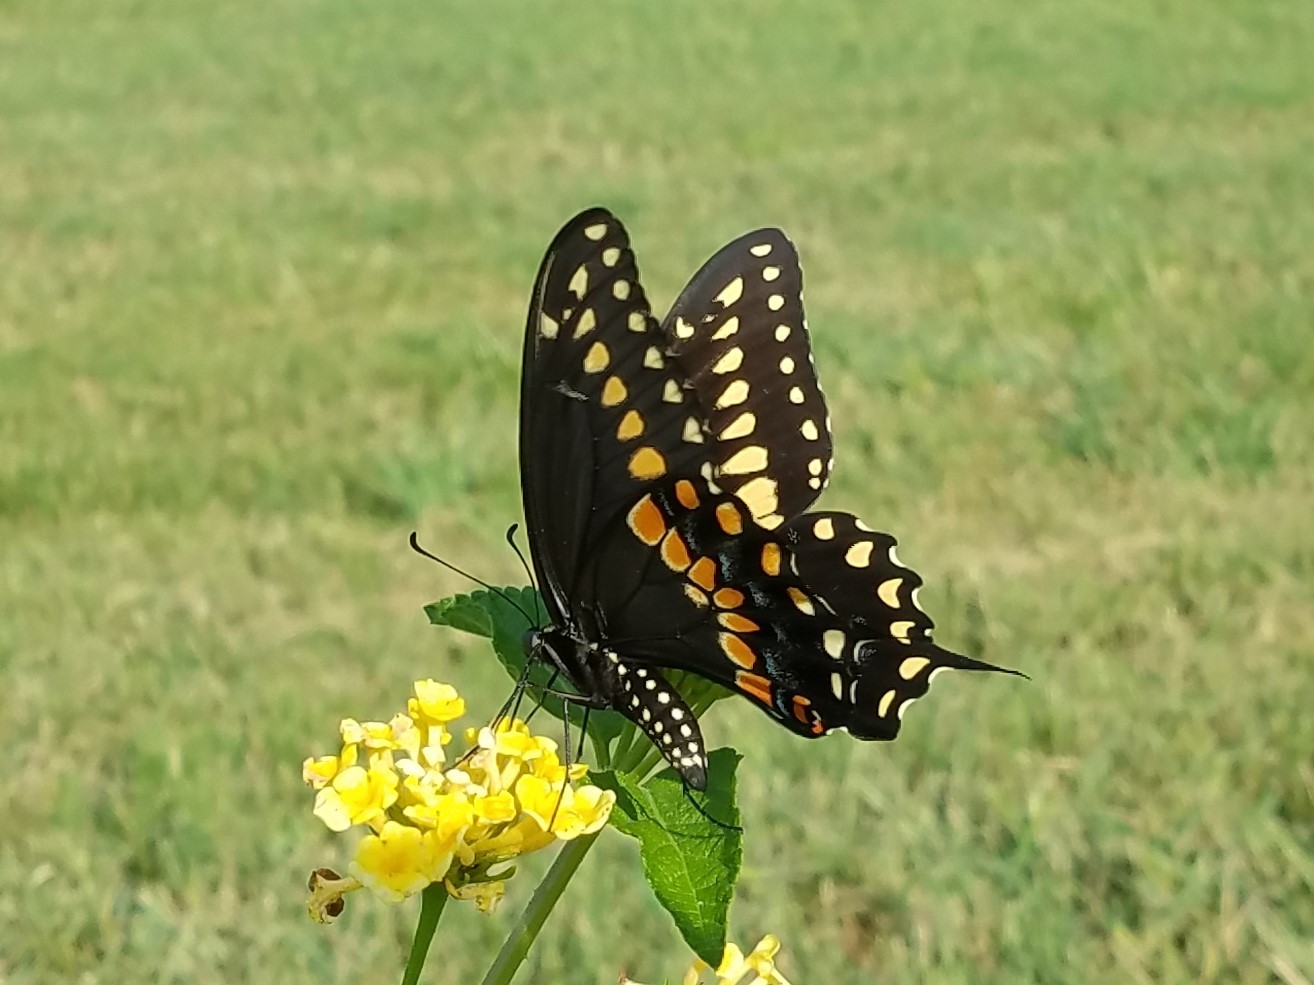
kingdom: Animalia
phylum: Arthropoda
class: Insecta
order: Lepidoptera
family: Papilionidae
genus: Papilio
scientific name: Papilio polyxenes
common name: Black swallowtail
